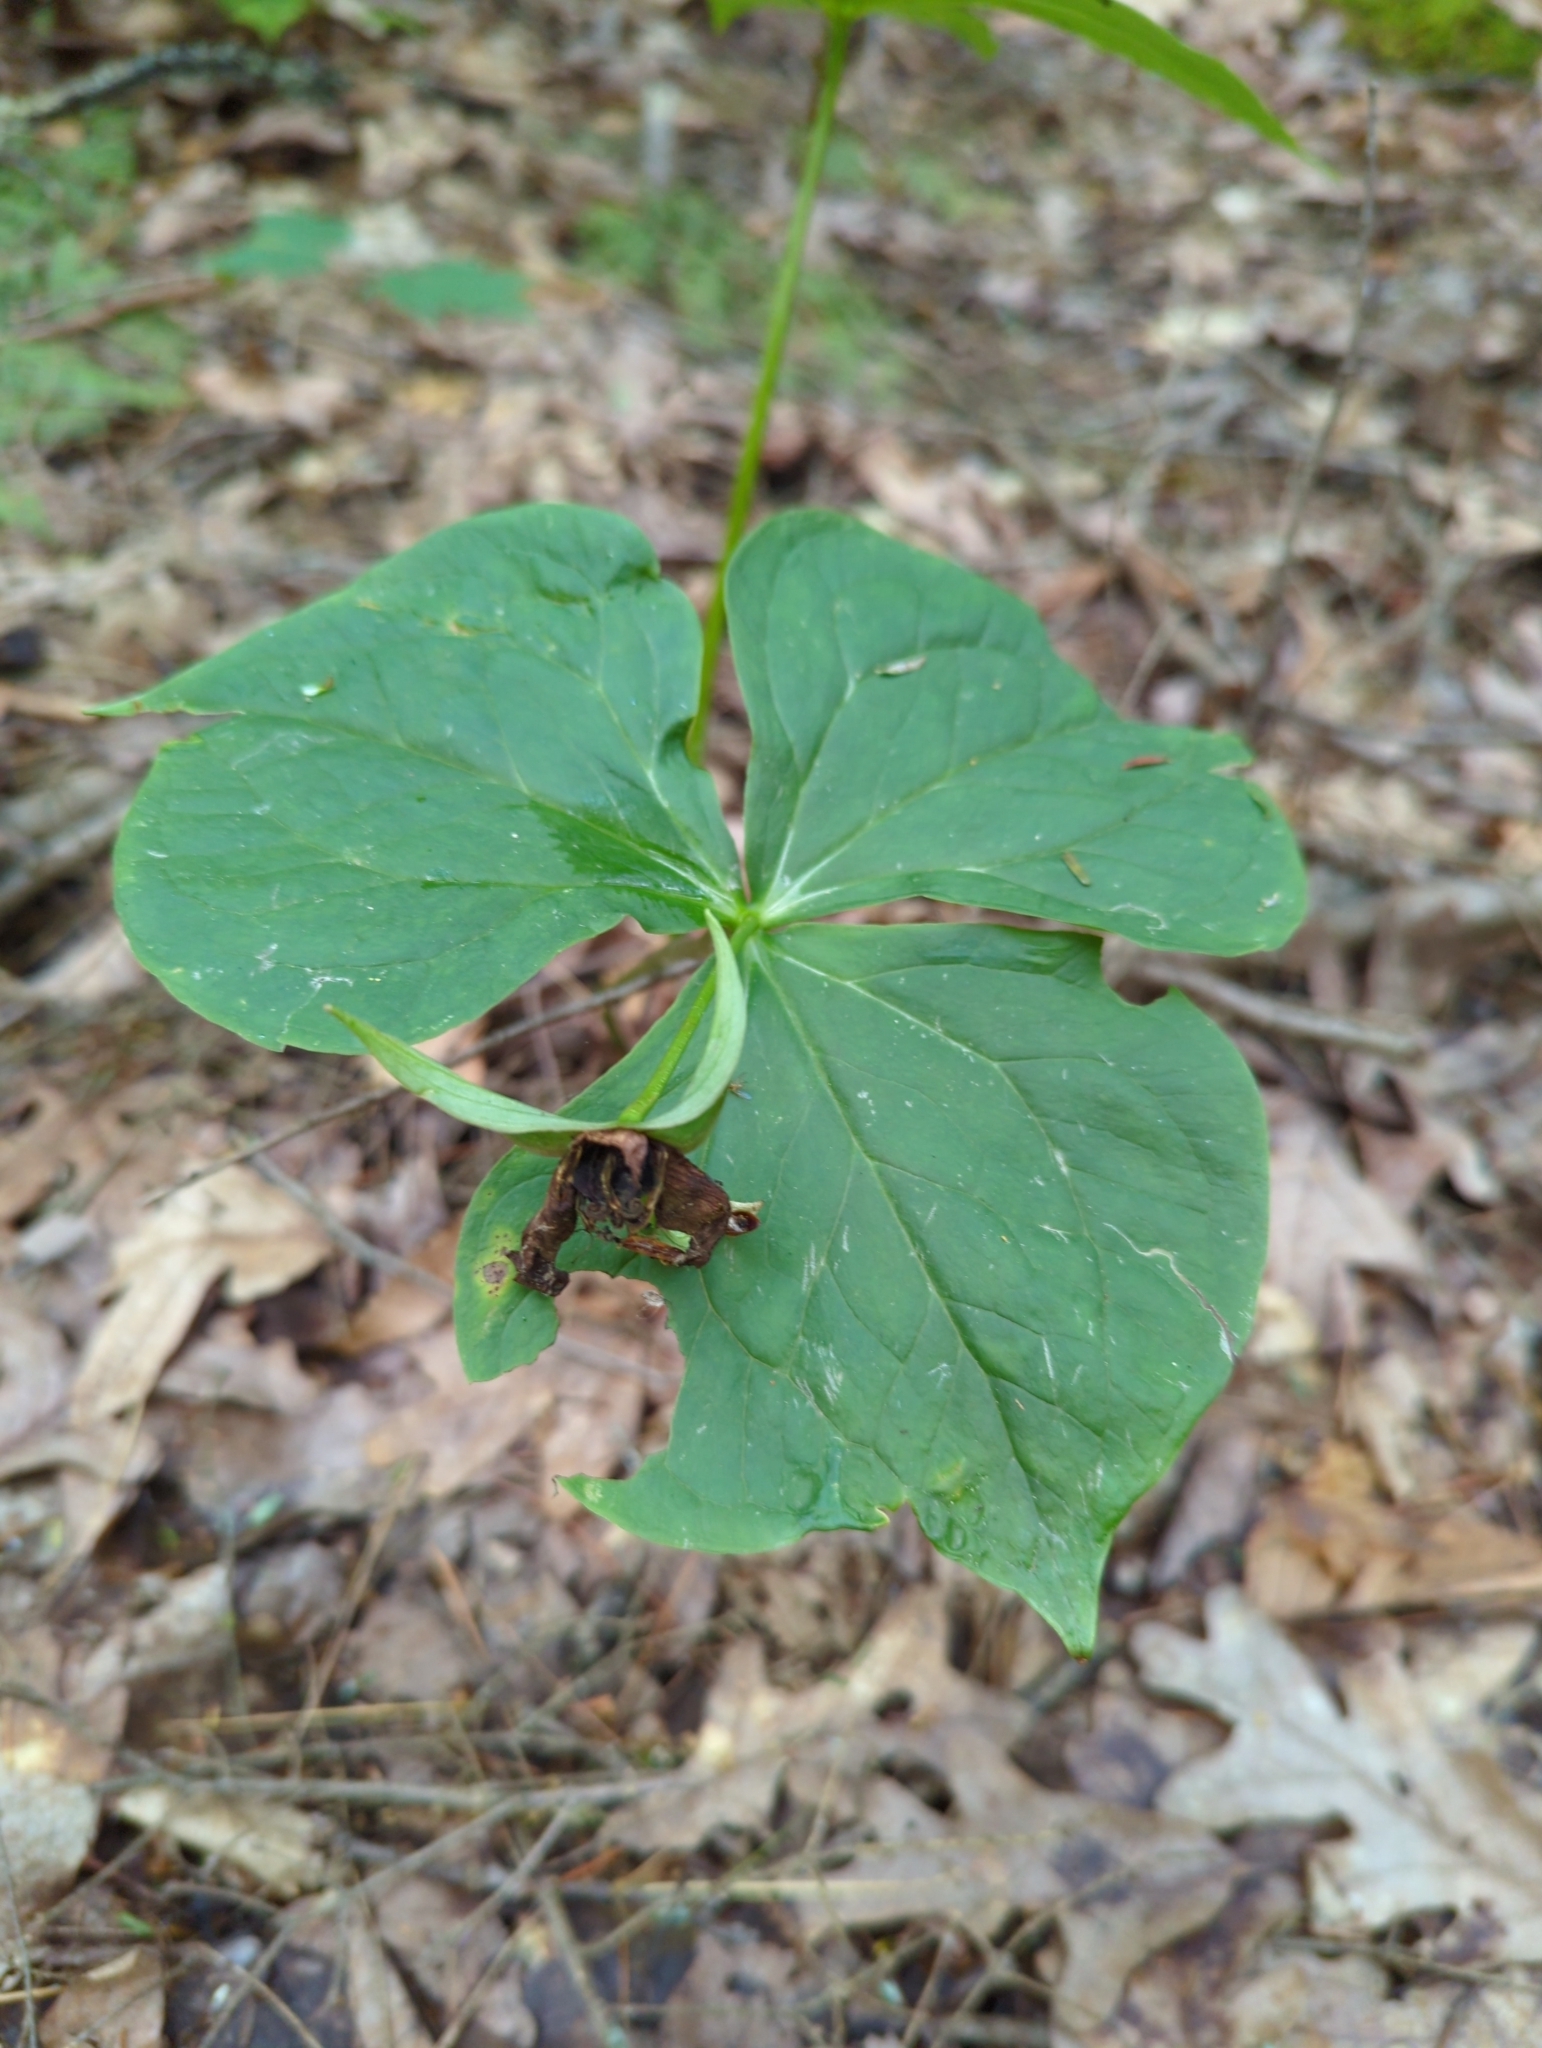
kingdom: Plantae
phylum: Tracheophyta
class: Liliopsida
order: Liliales
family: Melanthiaceae
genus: Trillium
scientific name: Trillium erectum
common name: Purple trillium
